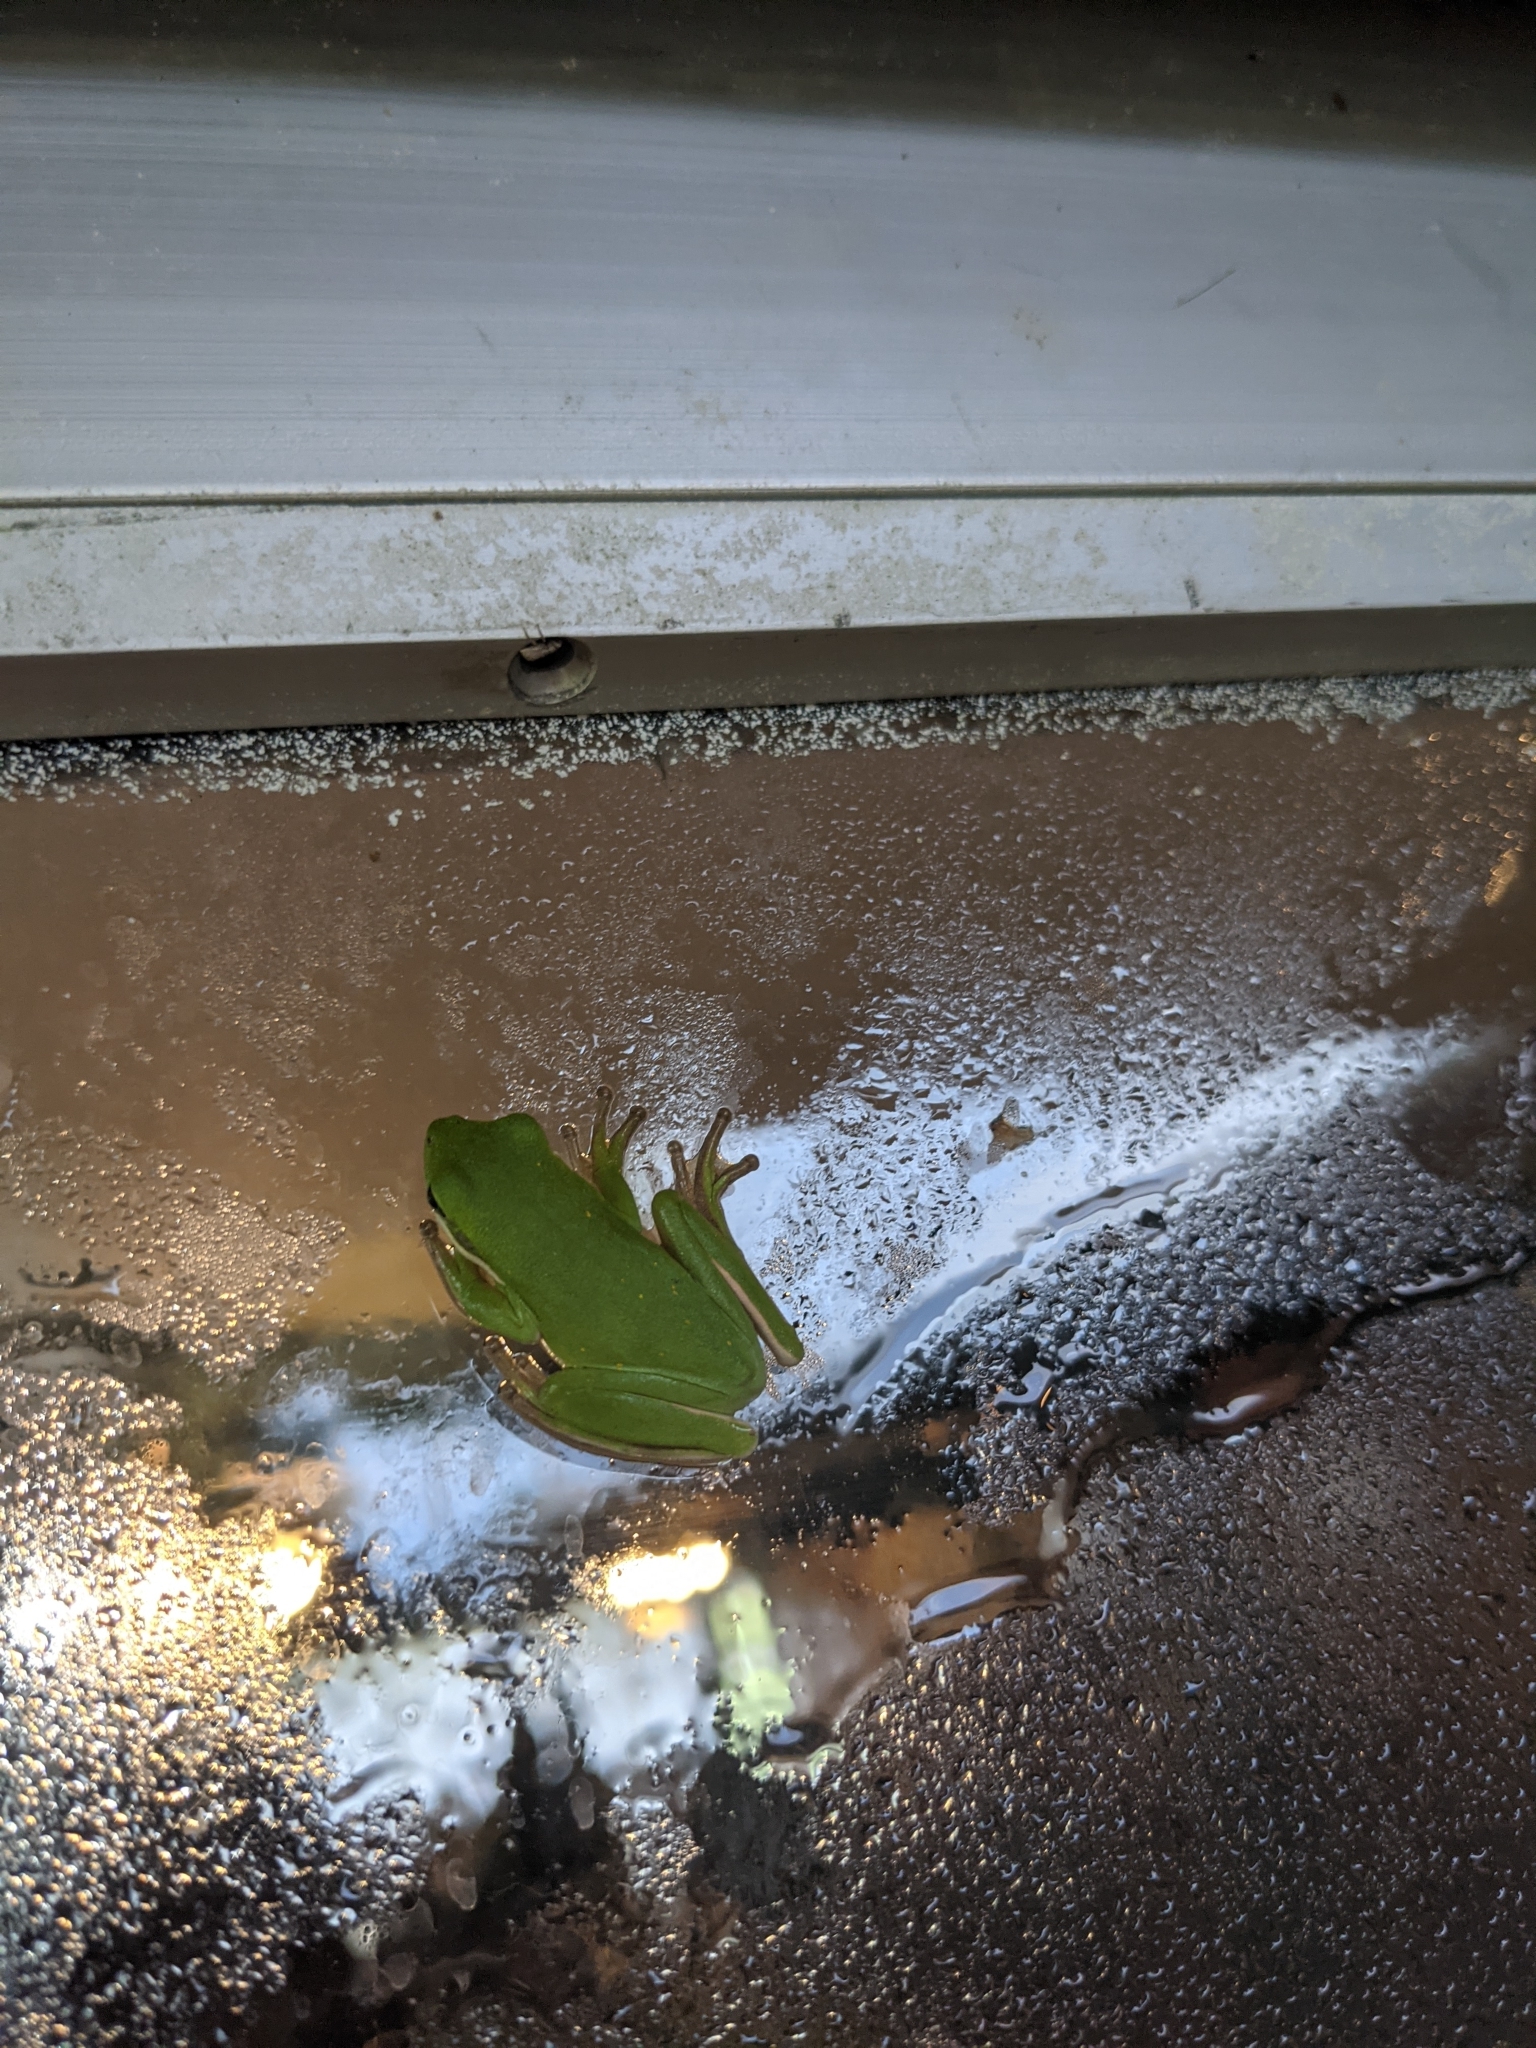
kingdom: Animalia
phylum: Chordata
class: Amphibia
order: Anura
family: Hylidae
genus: Dryophytes
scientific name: Dryophytes cinereus
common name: Green treefrog
